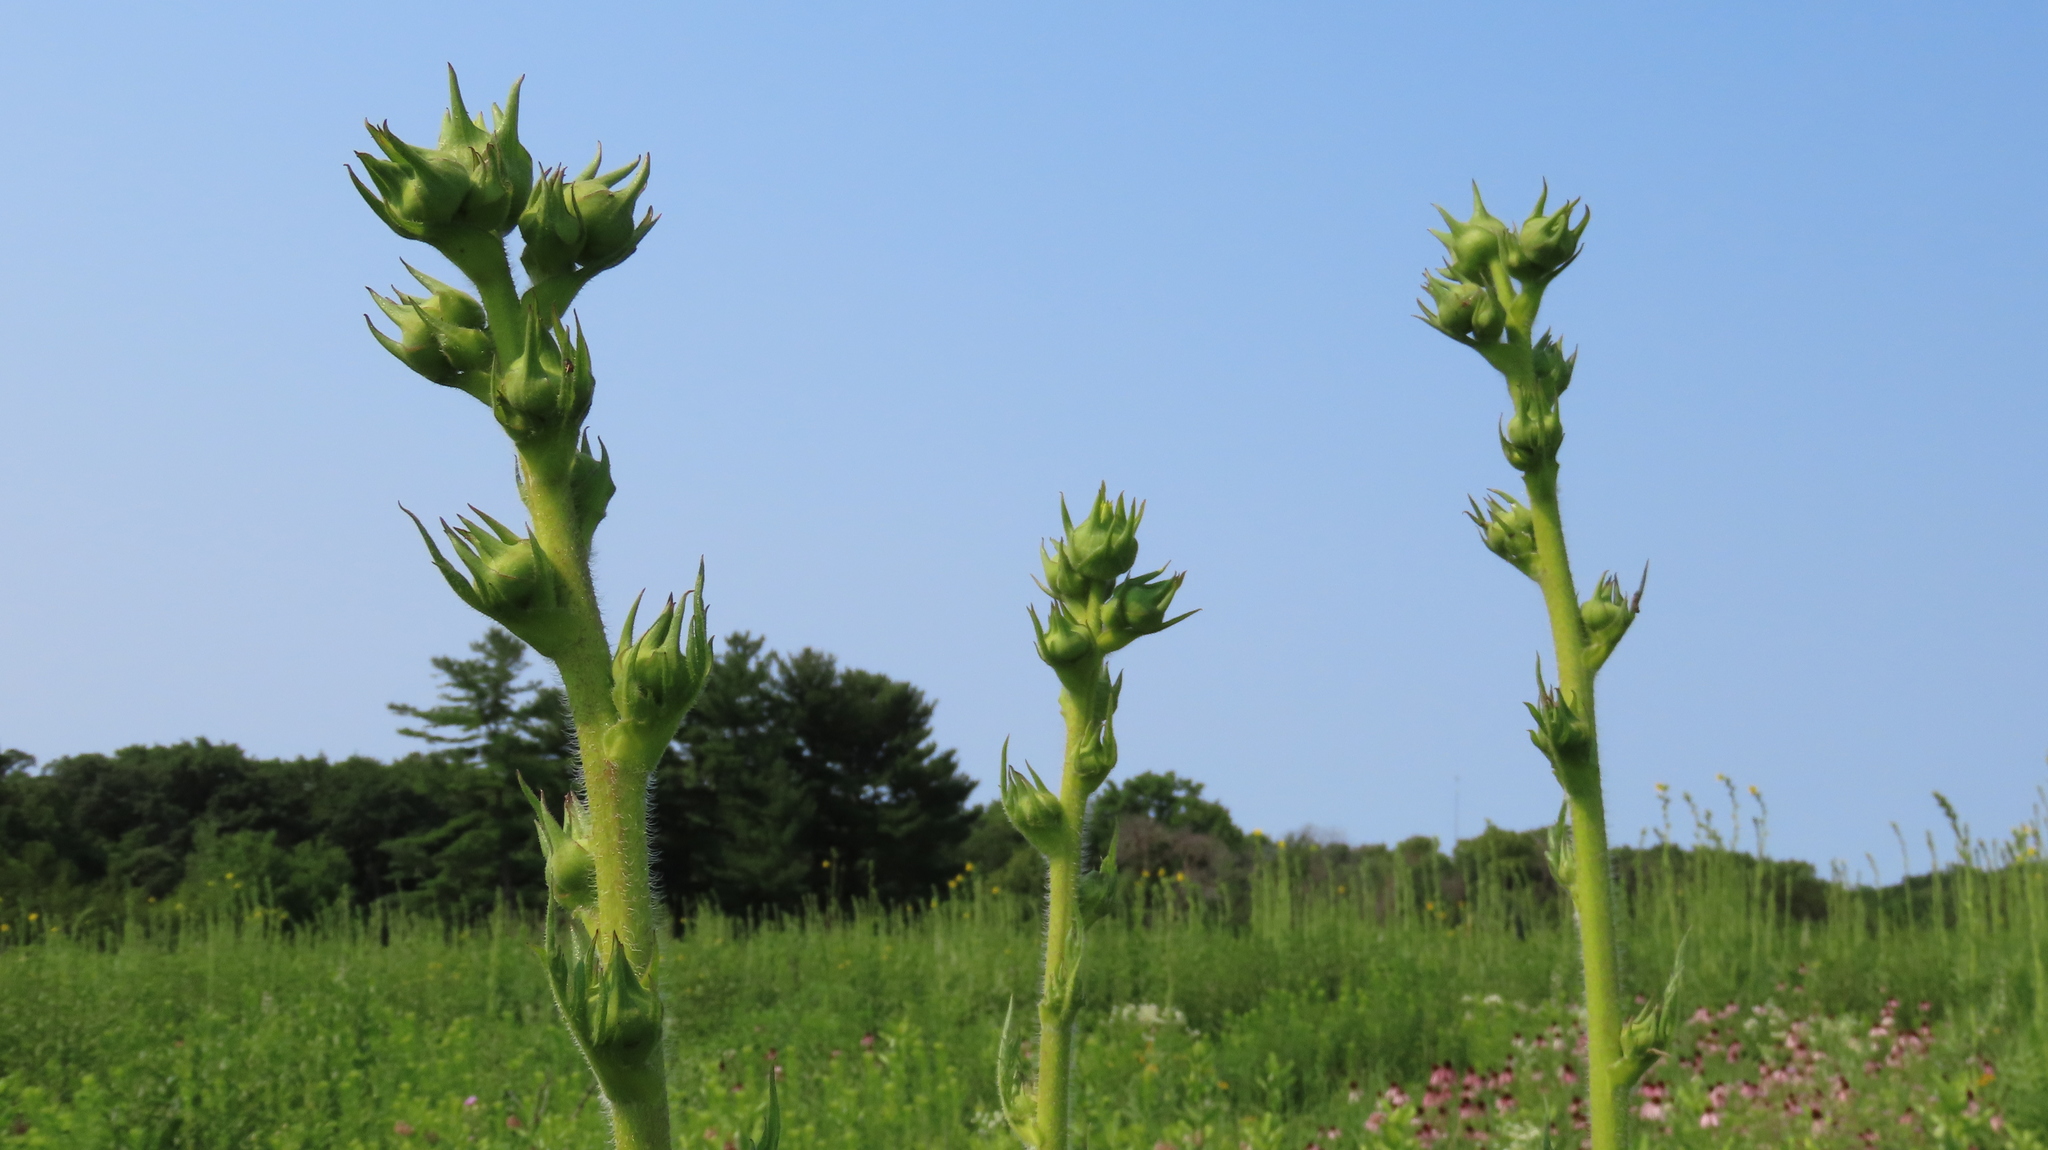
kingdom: Plantae
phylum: Tracheophyta
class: Magnoliopsida
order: Asterales
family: Asteraceae
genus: Silphium
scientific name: Silphium laciniatum
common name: Polarplant
